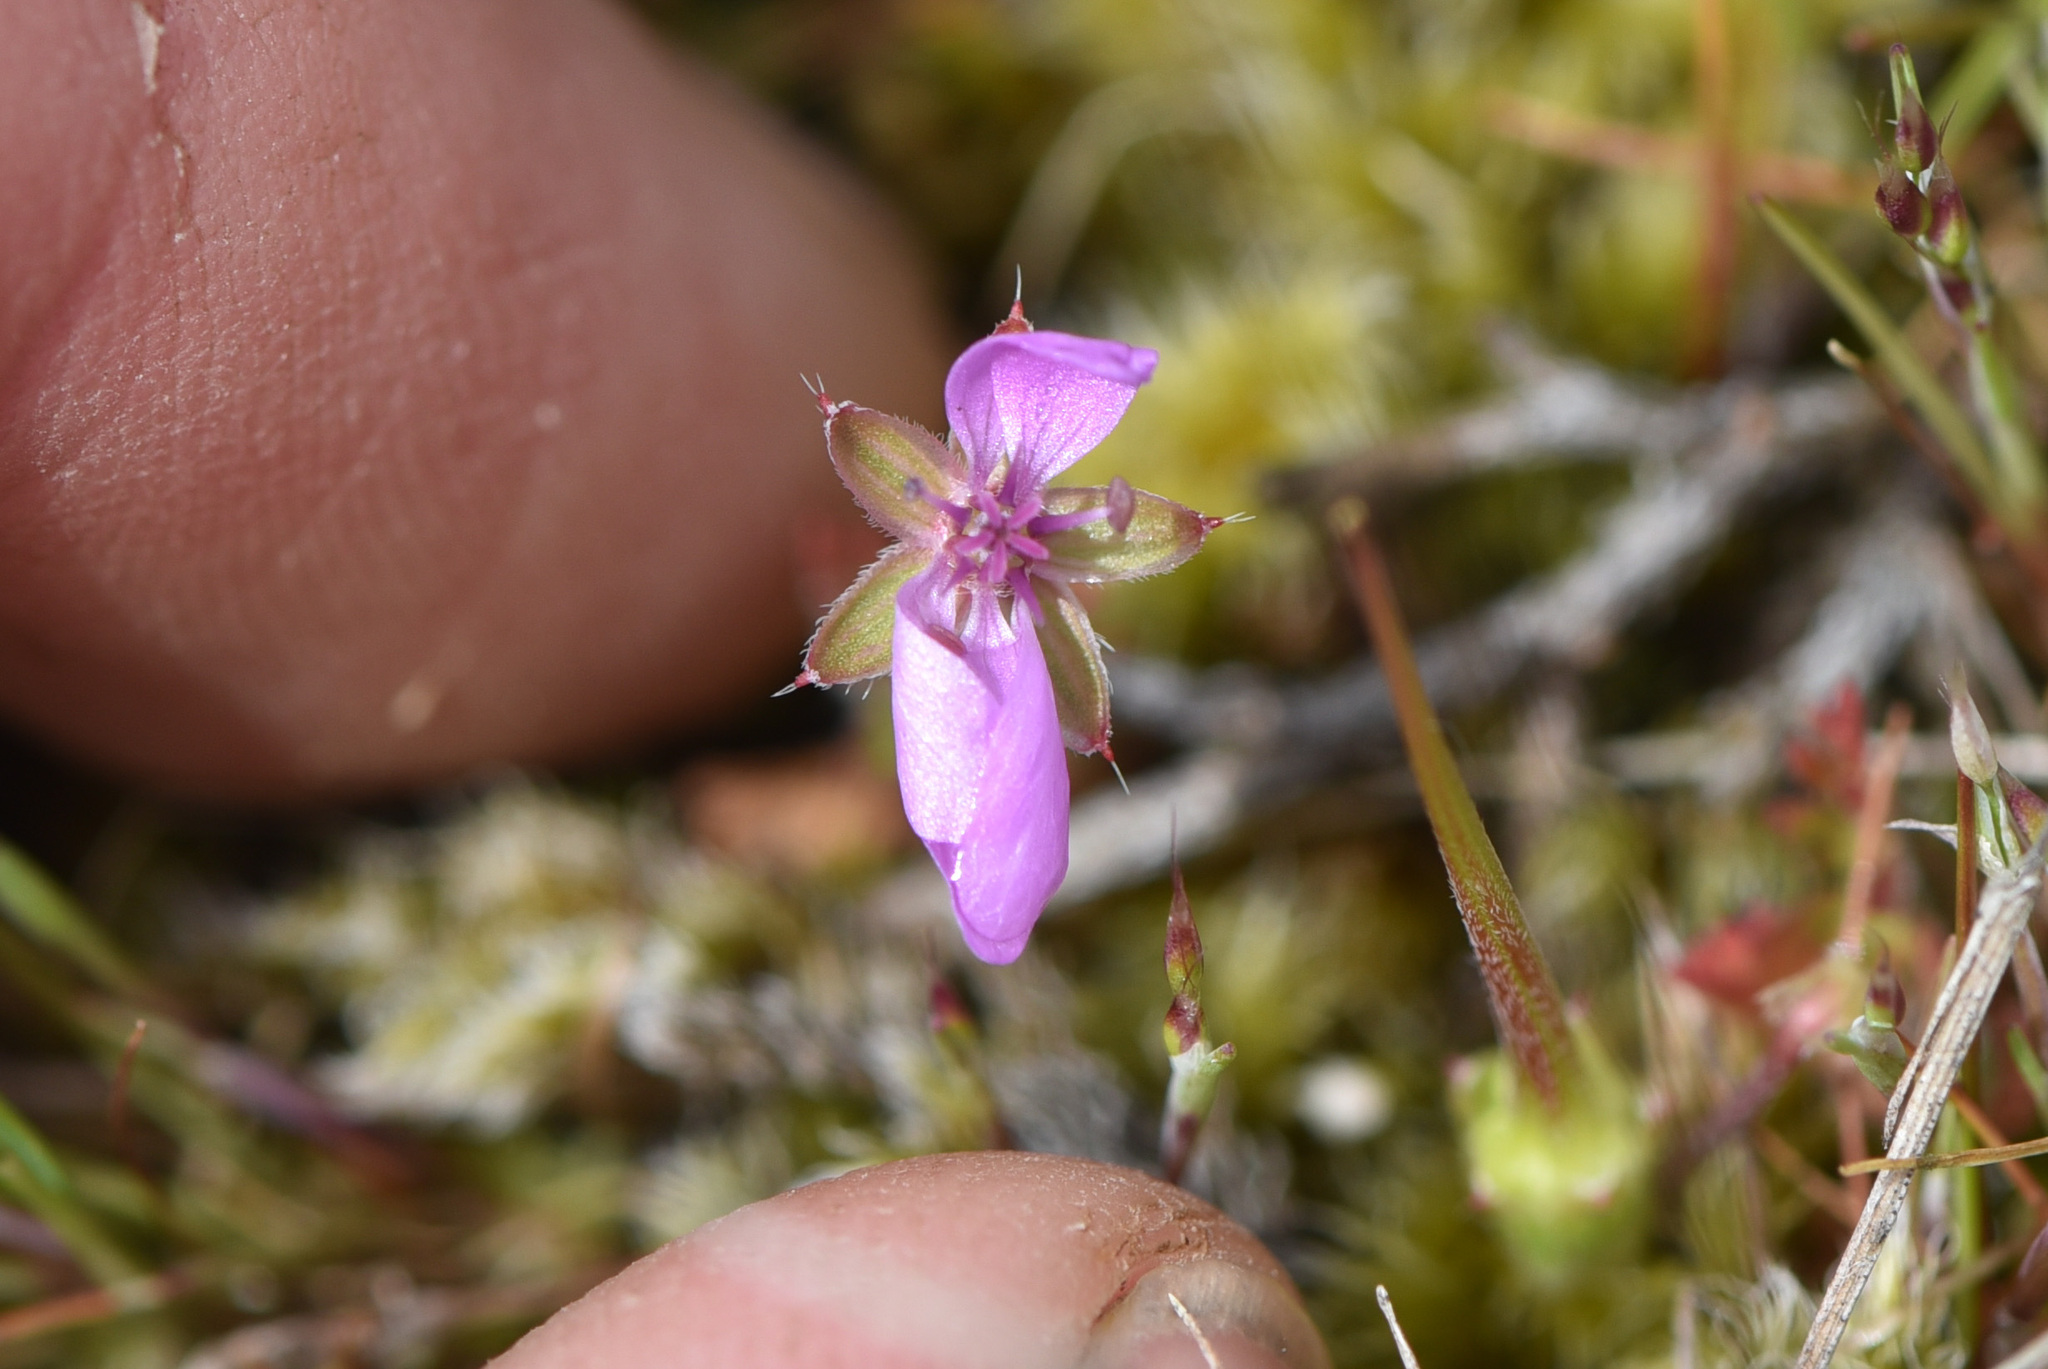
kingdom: Plantae
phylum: Tracheophyta
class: Magnoliopsida
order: Geraniales
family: Geraniaceae
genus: Erodium
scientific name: Erodium cicutarium
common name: Common stork's-bill
